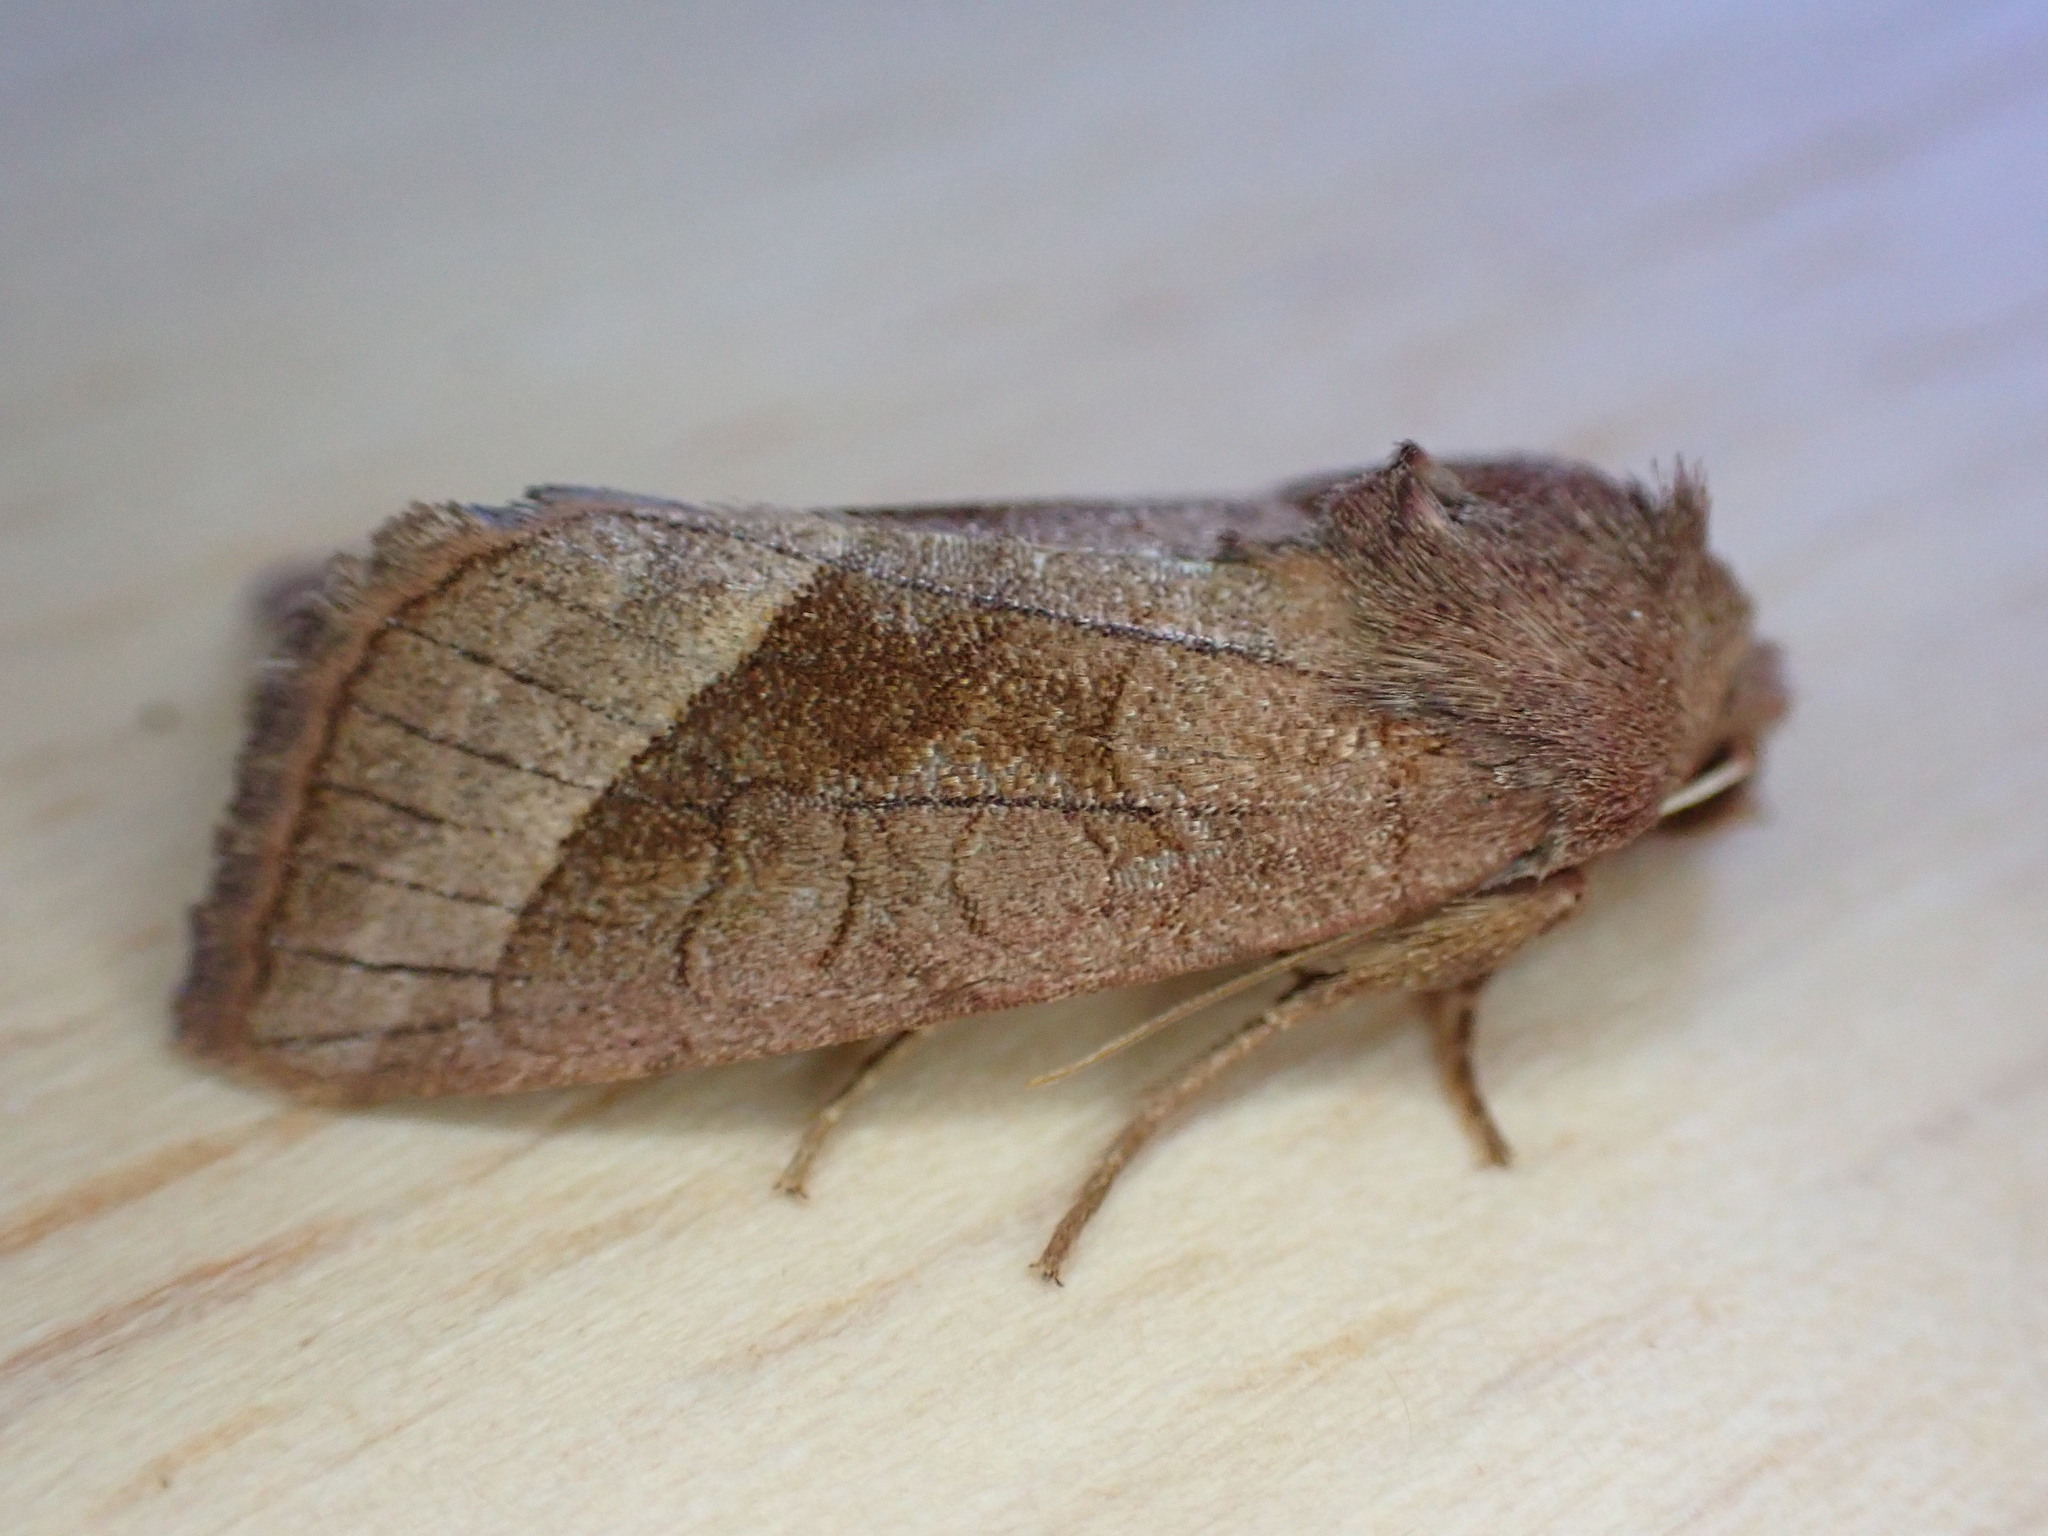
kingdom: Animalia
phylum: Arthropoda
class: Insecta
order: Lepidoptera
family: Noctuidae
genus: Hydraecia
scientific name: Hydraecia micacea
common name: Rosy rustic
